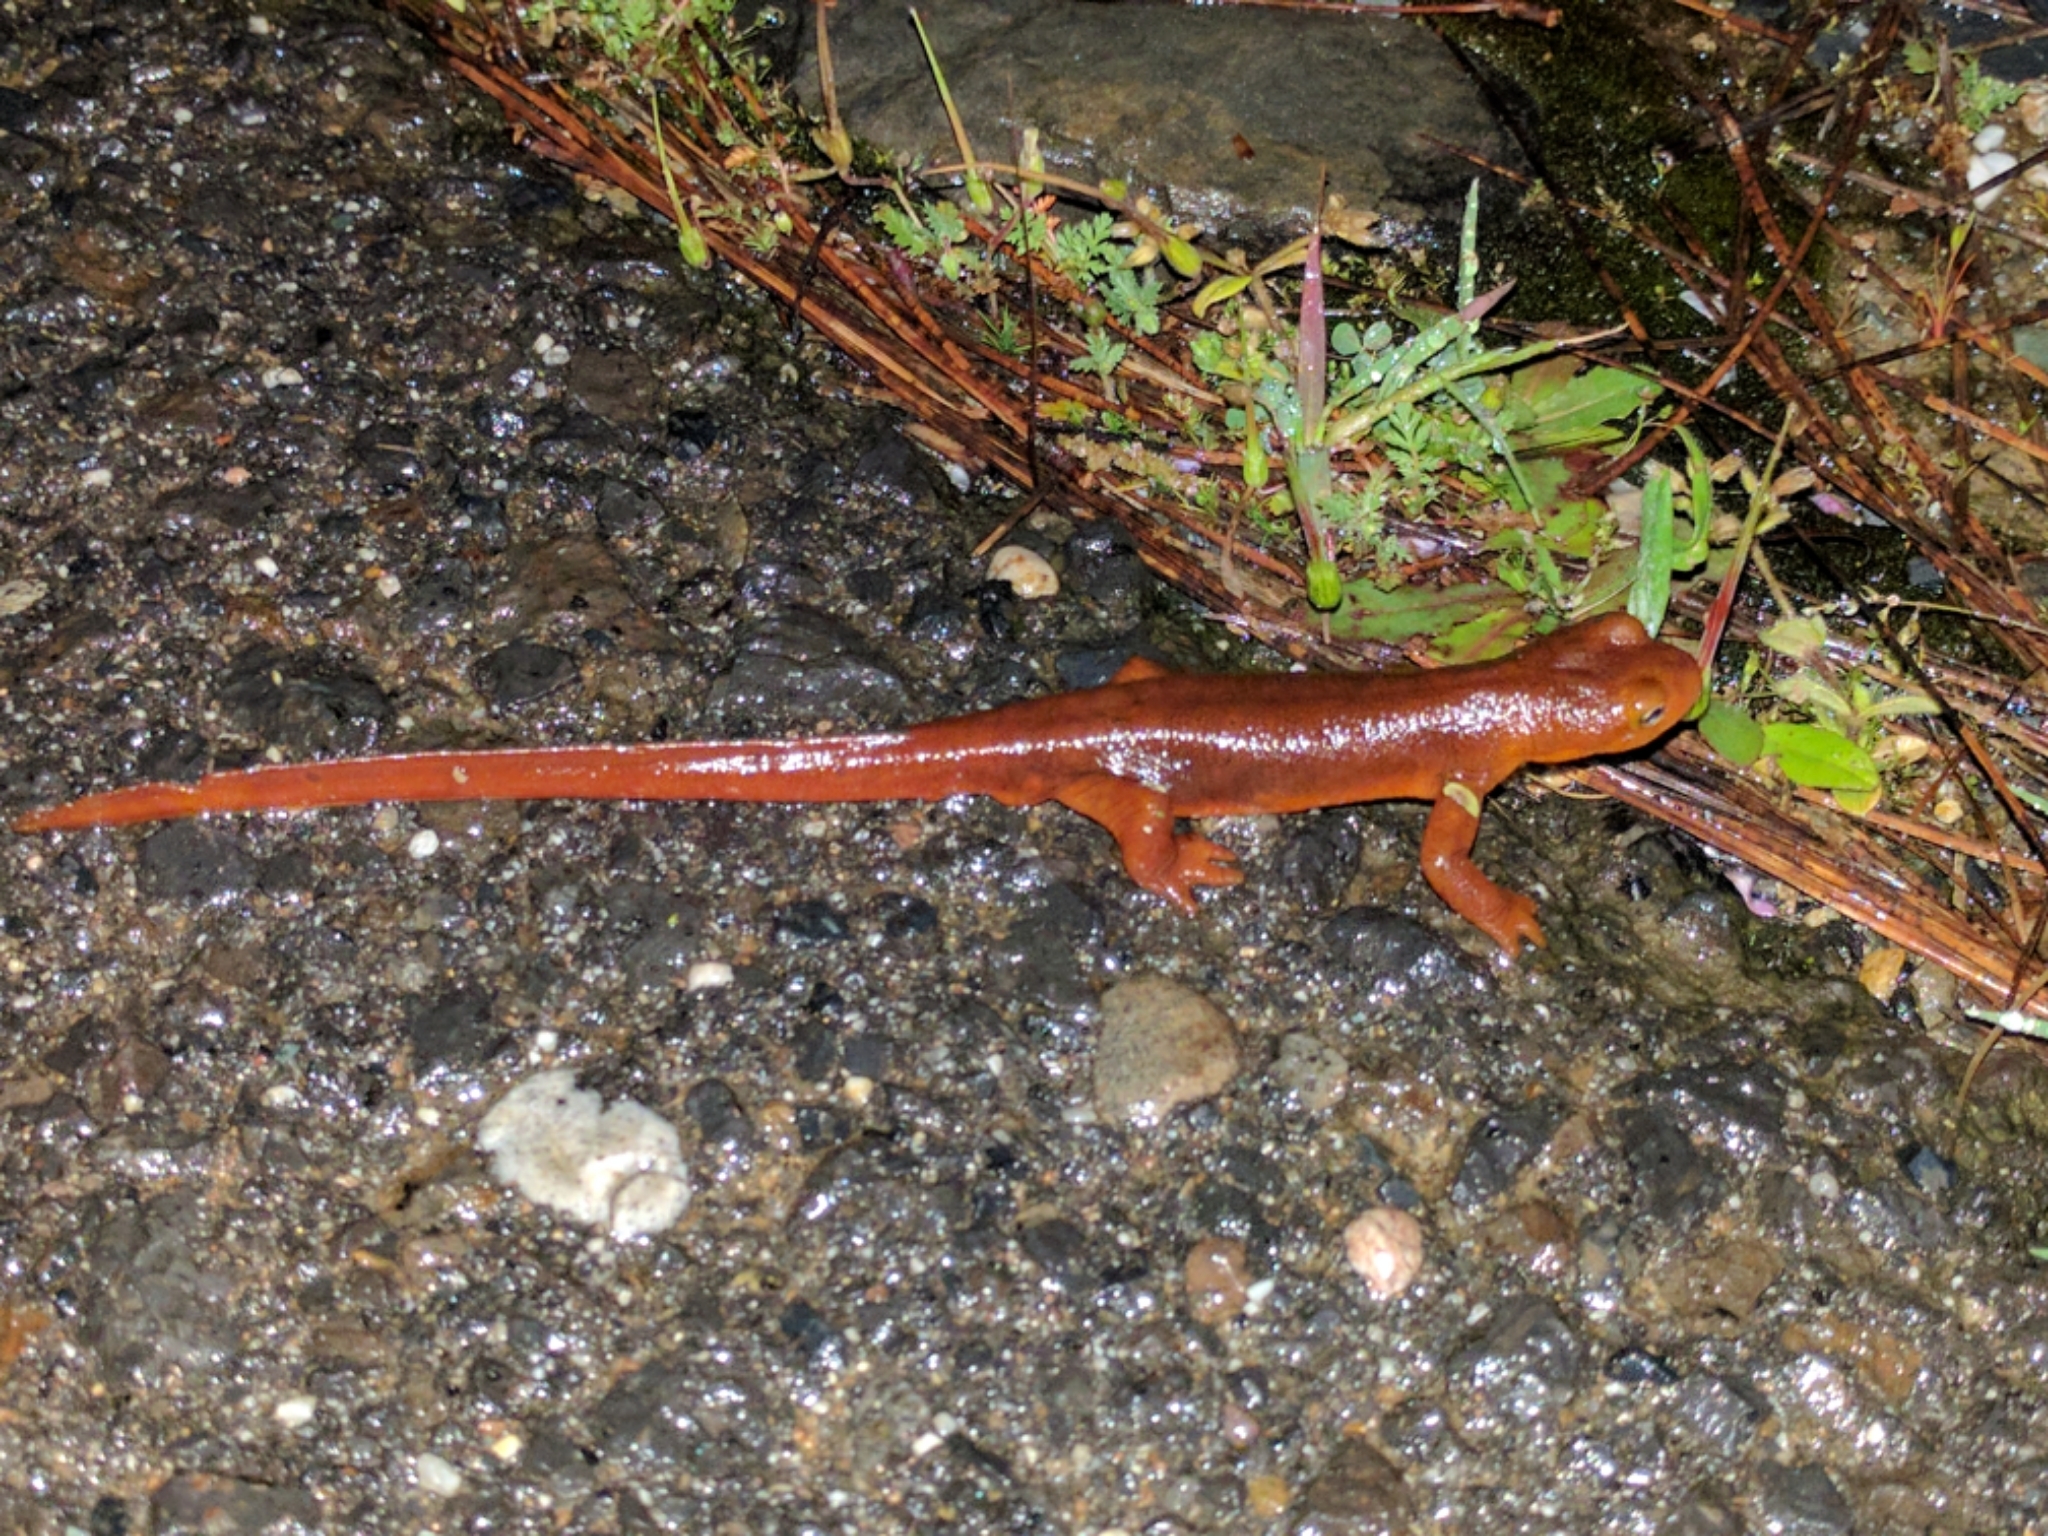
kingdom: Animalia
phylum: Chordata
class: Amphibia
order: Caudata
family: Salamandridae
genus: Taricha
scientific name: Taricha sierrae
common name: Sierra newt
